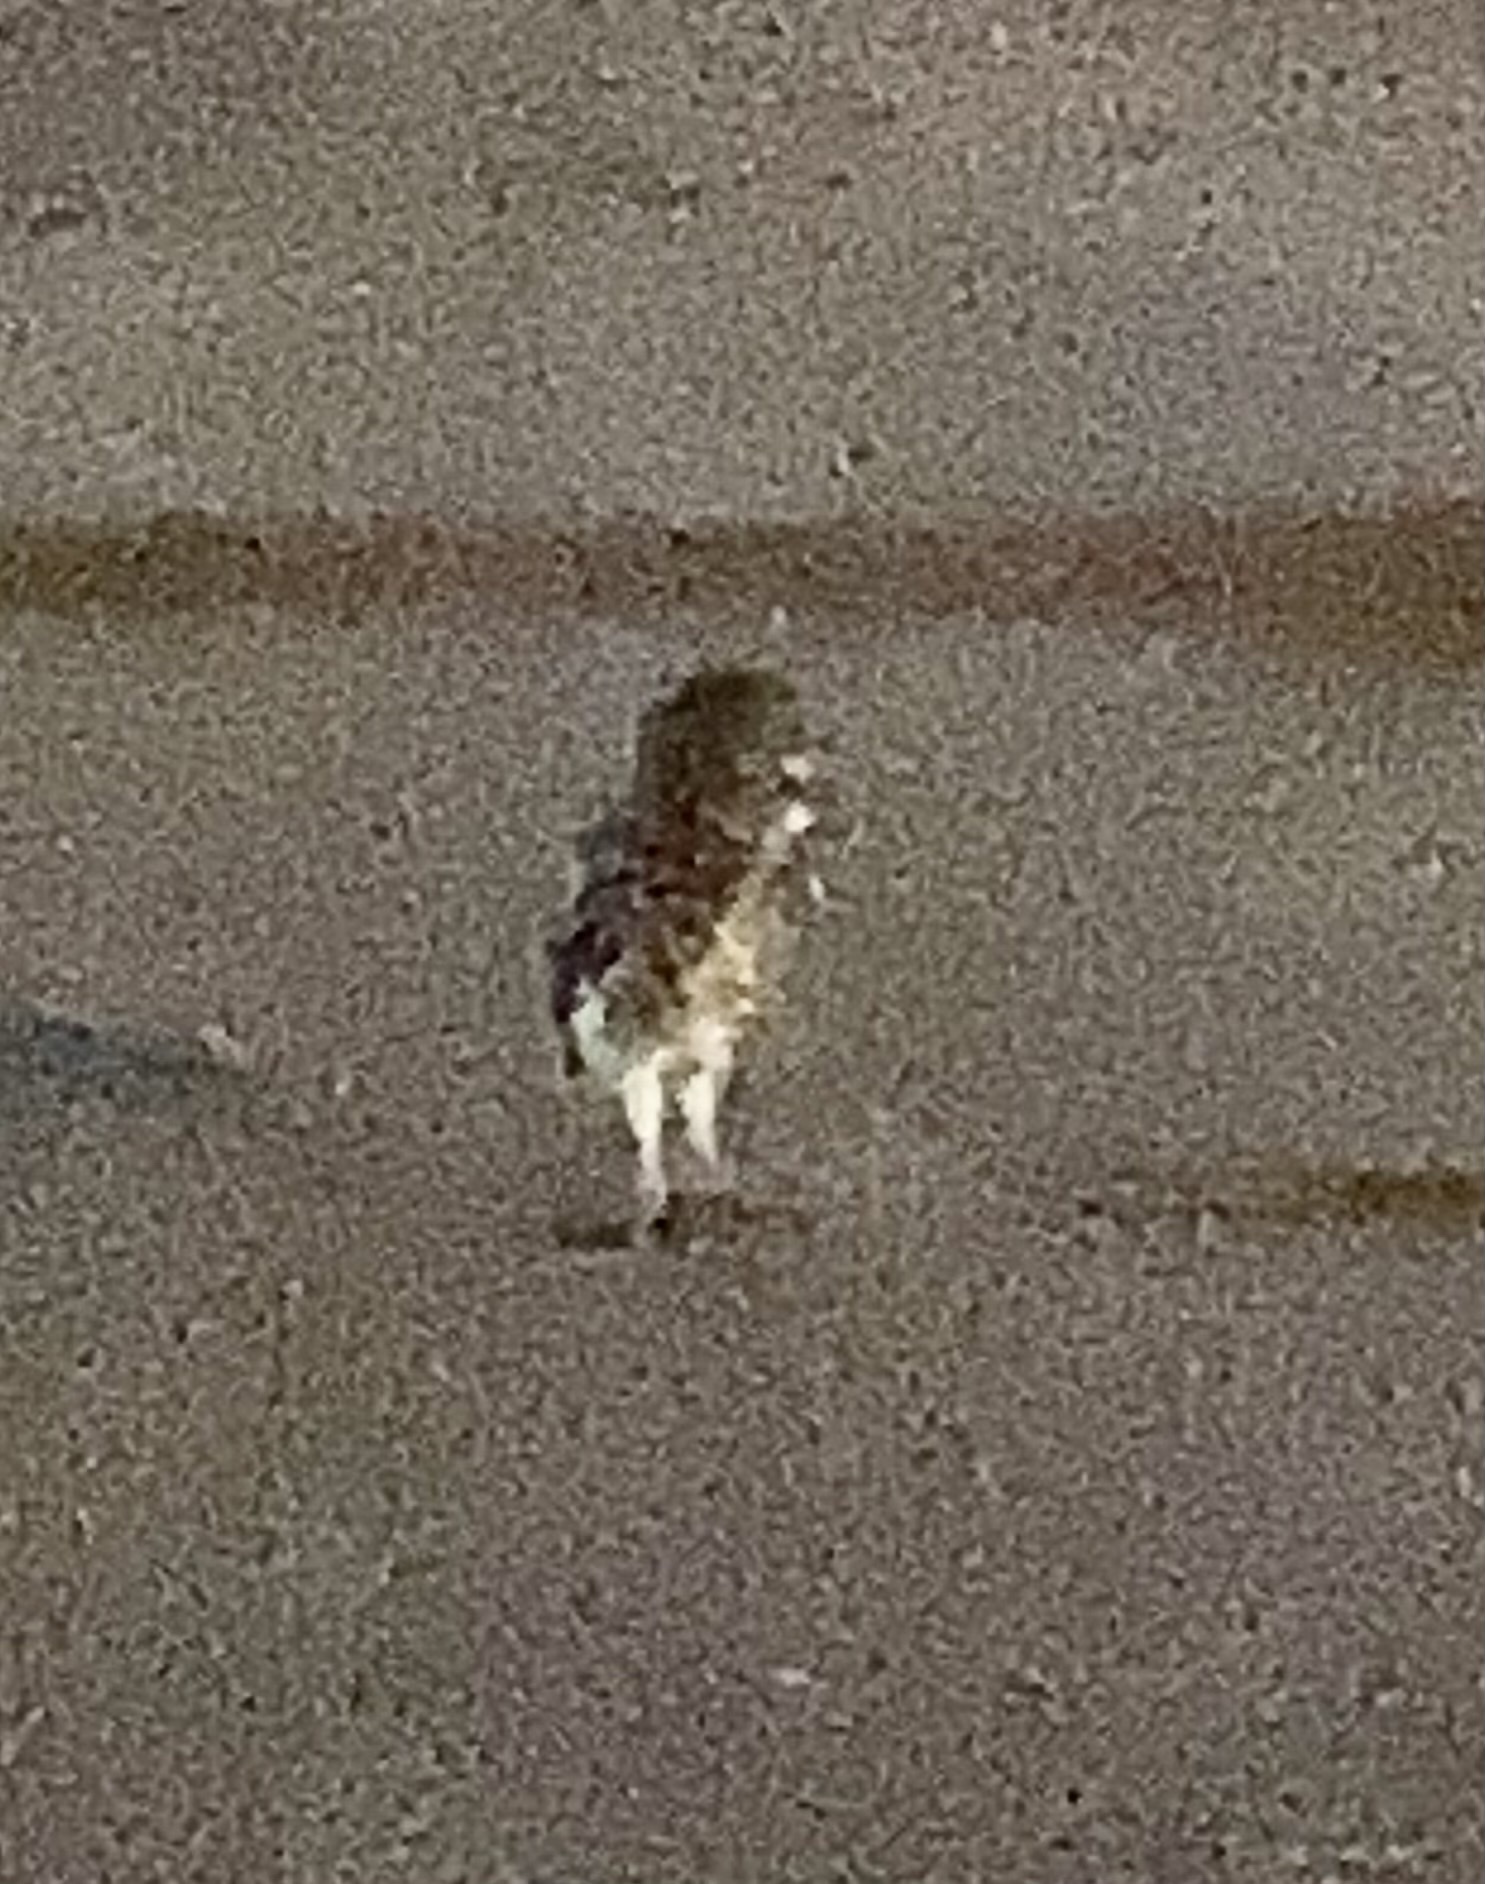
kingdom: Animalia
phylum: Chordata
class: Aves
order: Strigiformes
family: Strigidae
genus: Athene
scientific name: Athene cunicularia
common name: Burrowing owl
